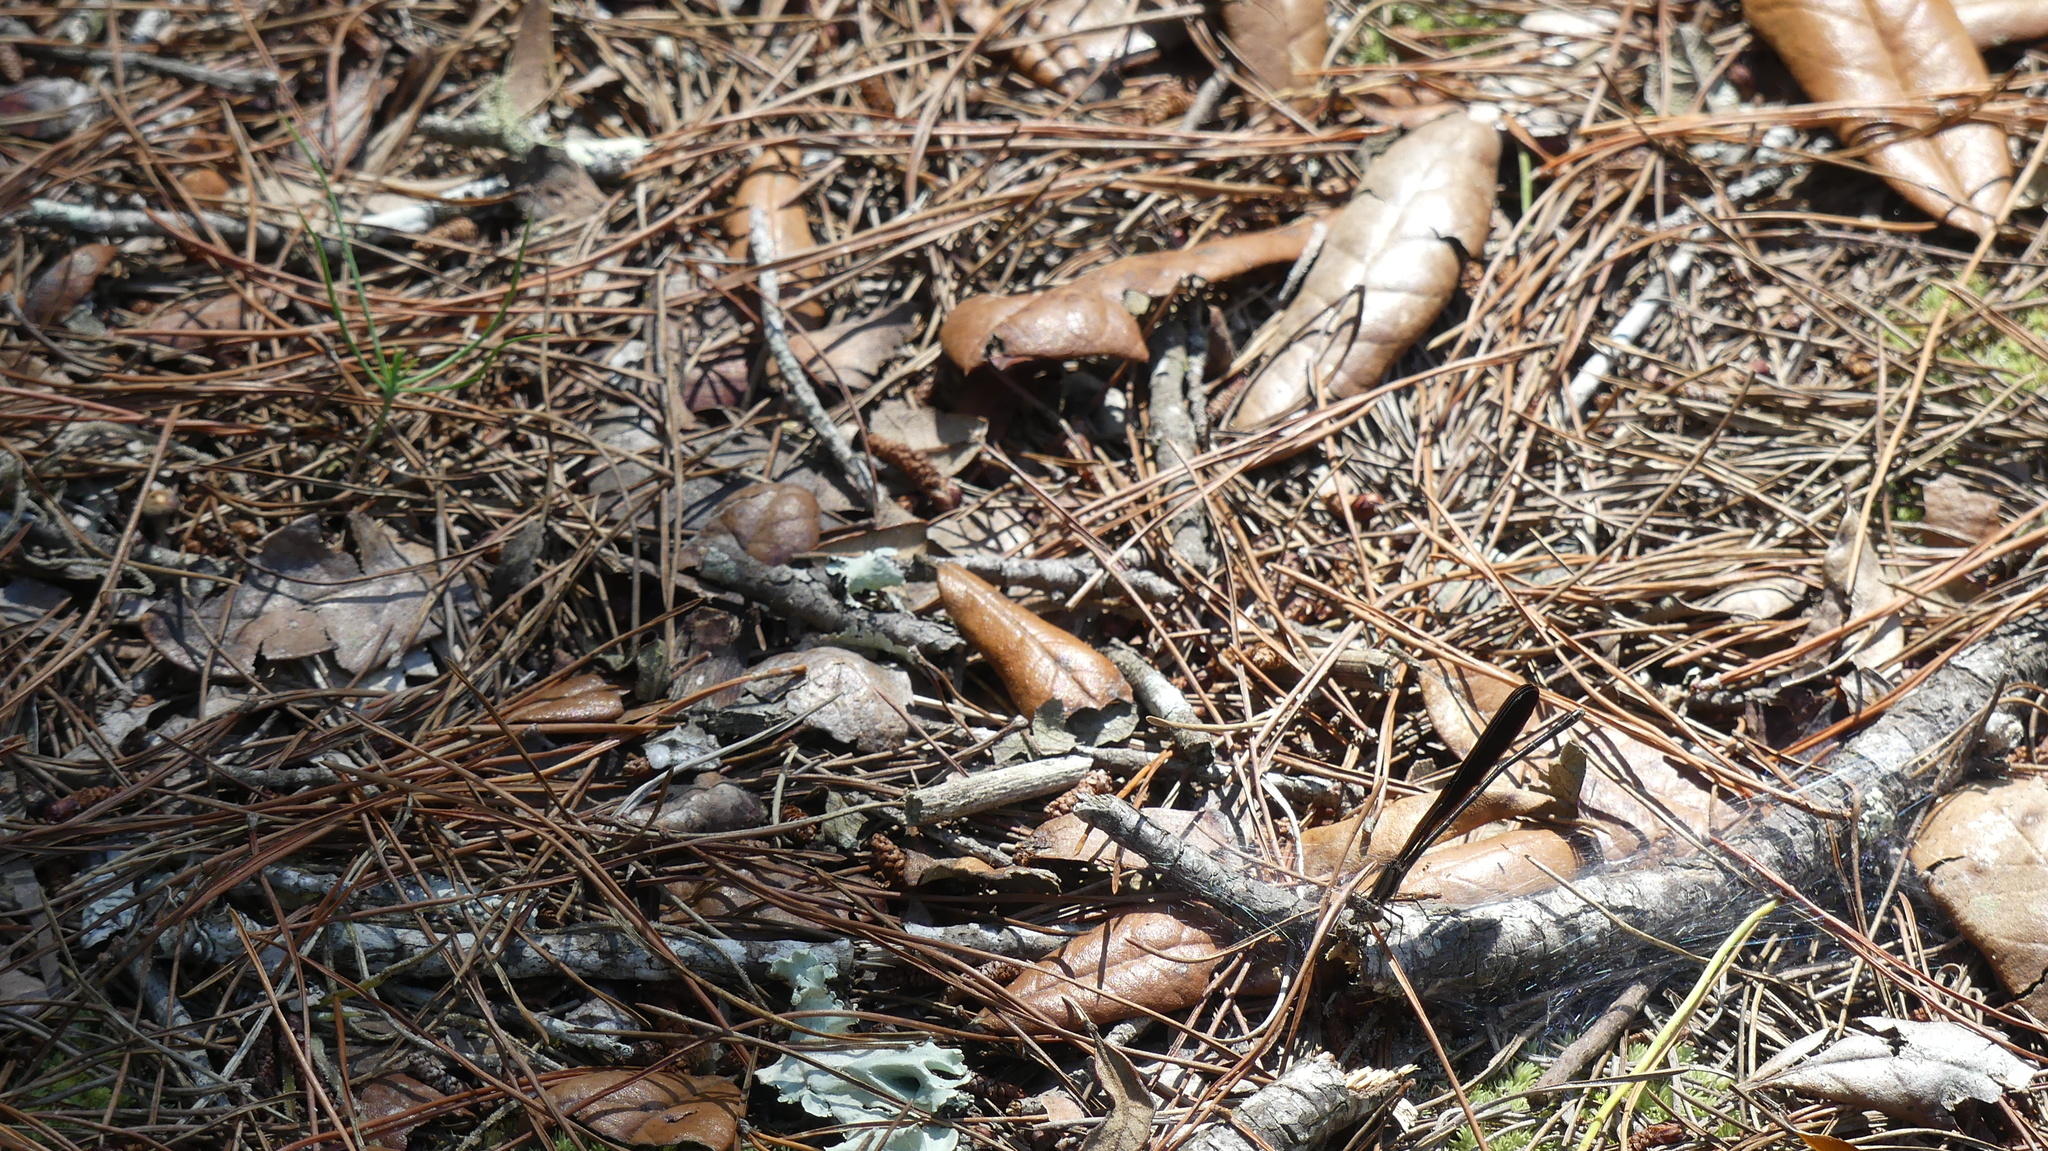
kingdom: Animalia
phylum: Arthropoda
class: Insecta
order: Odonata
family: Coenagrionidae
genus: Argia
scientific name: Argia fumipennis
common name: Variable dancer
